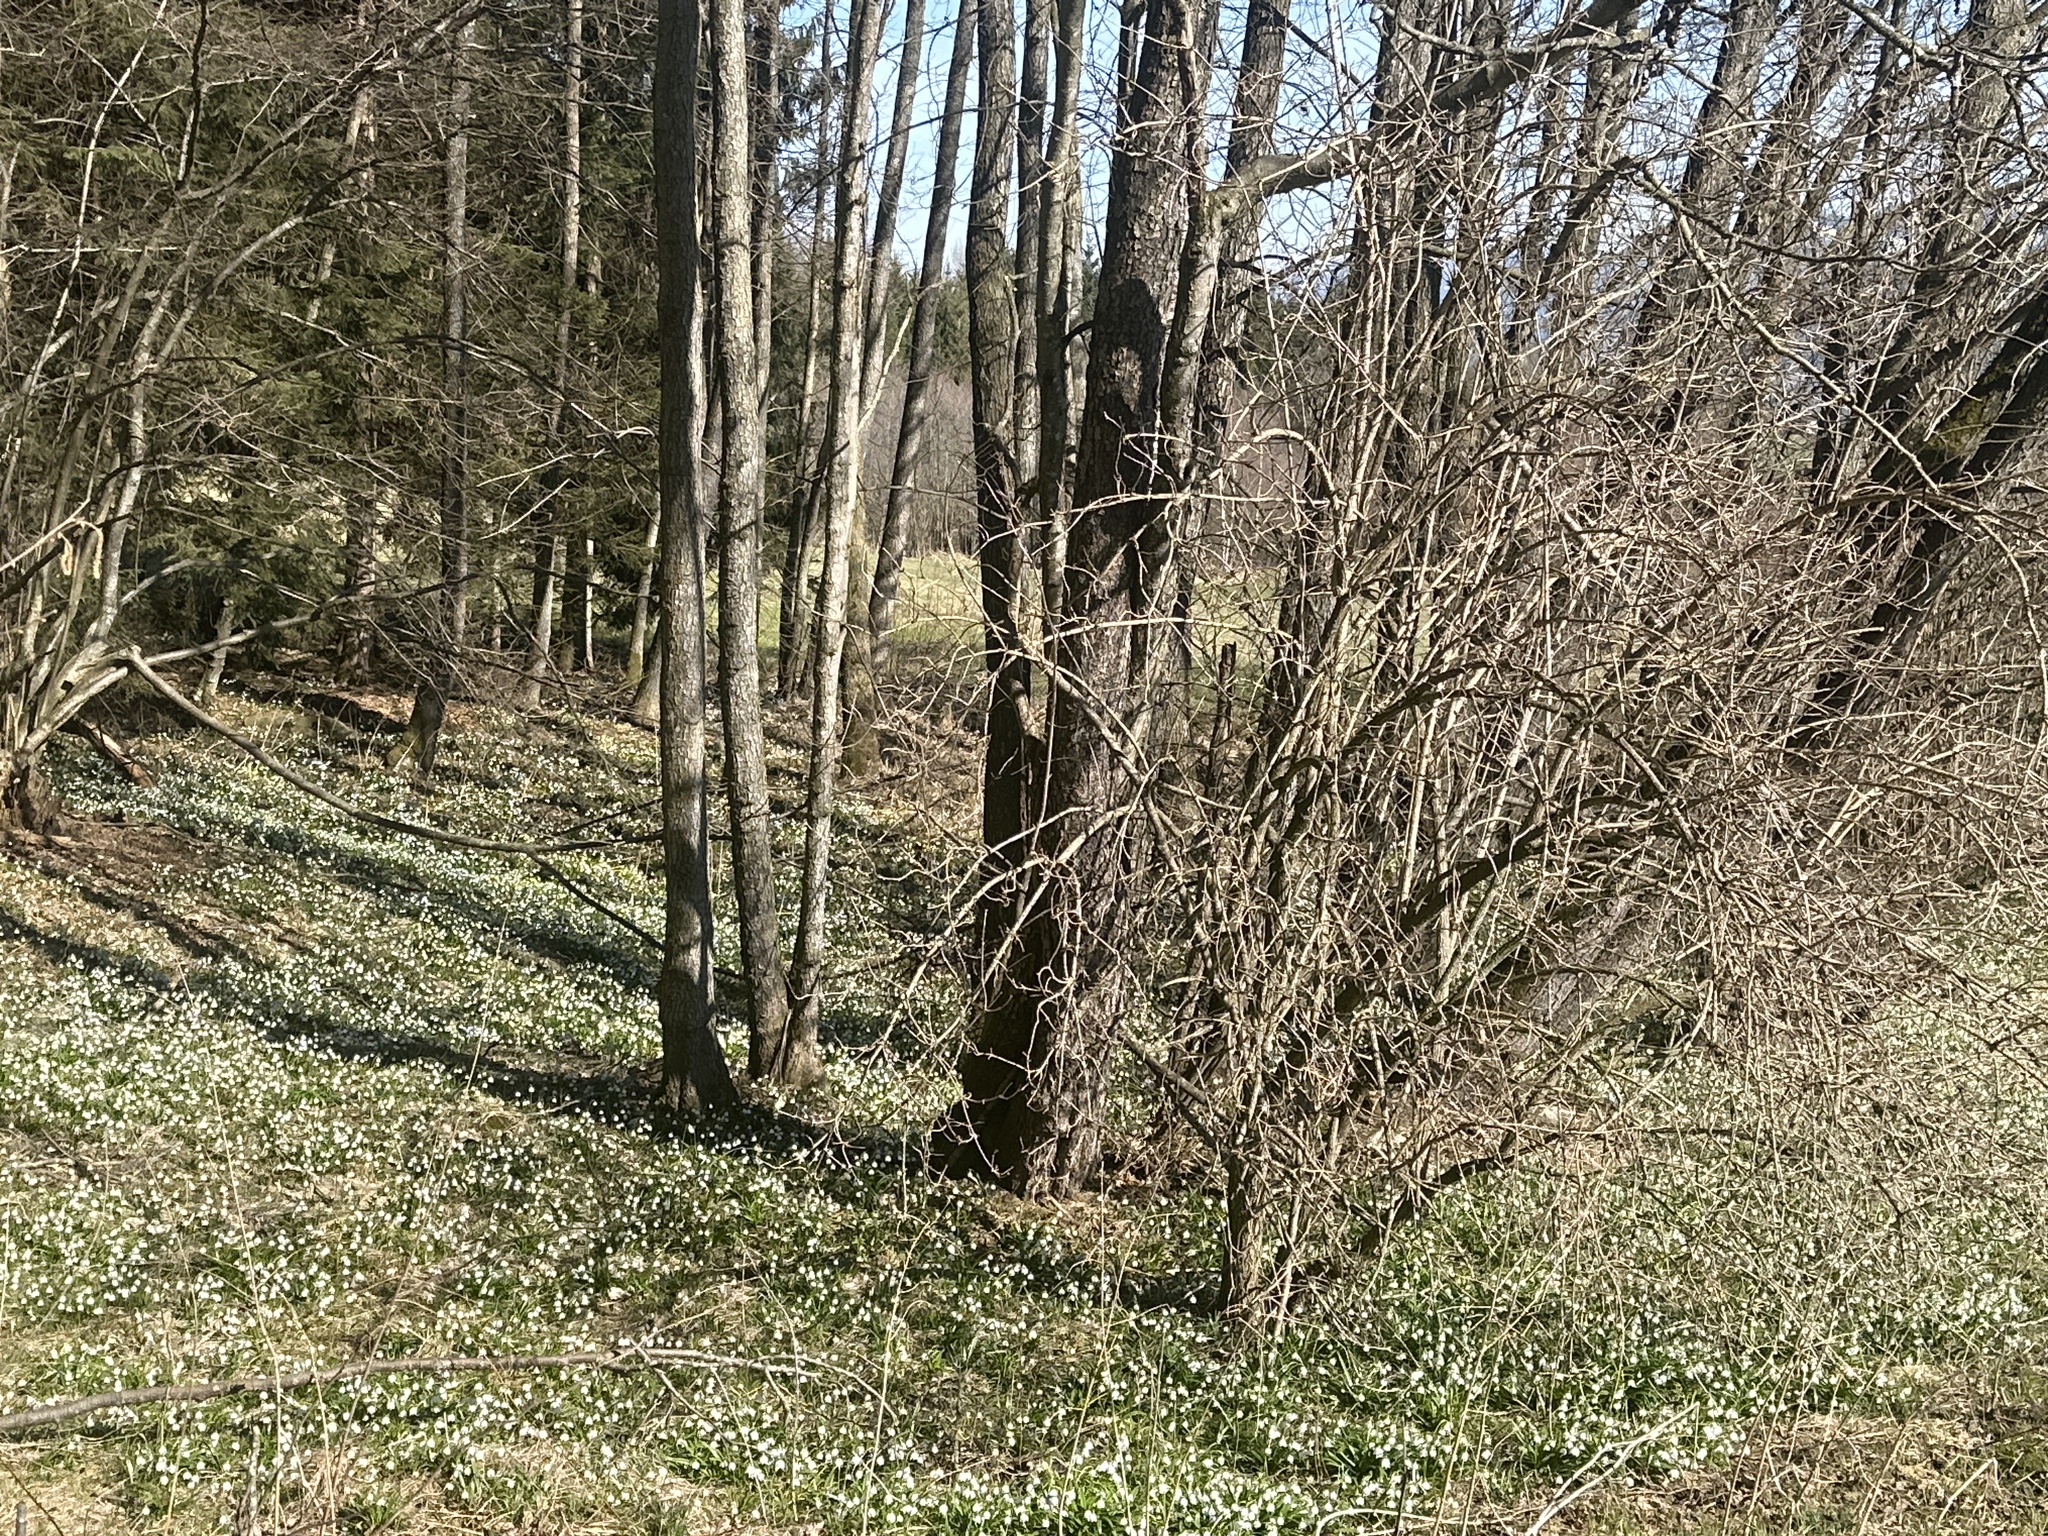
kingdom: Plantae
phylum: Tracheophyta
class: Liliopsida
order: Asparagales
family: Amaryllidaceae
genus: Leucojum
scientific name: Leucojum vernum
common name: Spring snowflake
